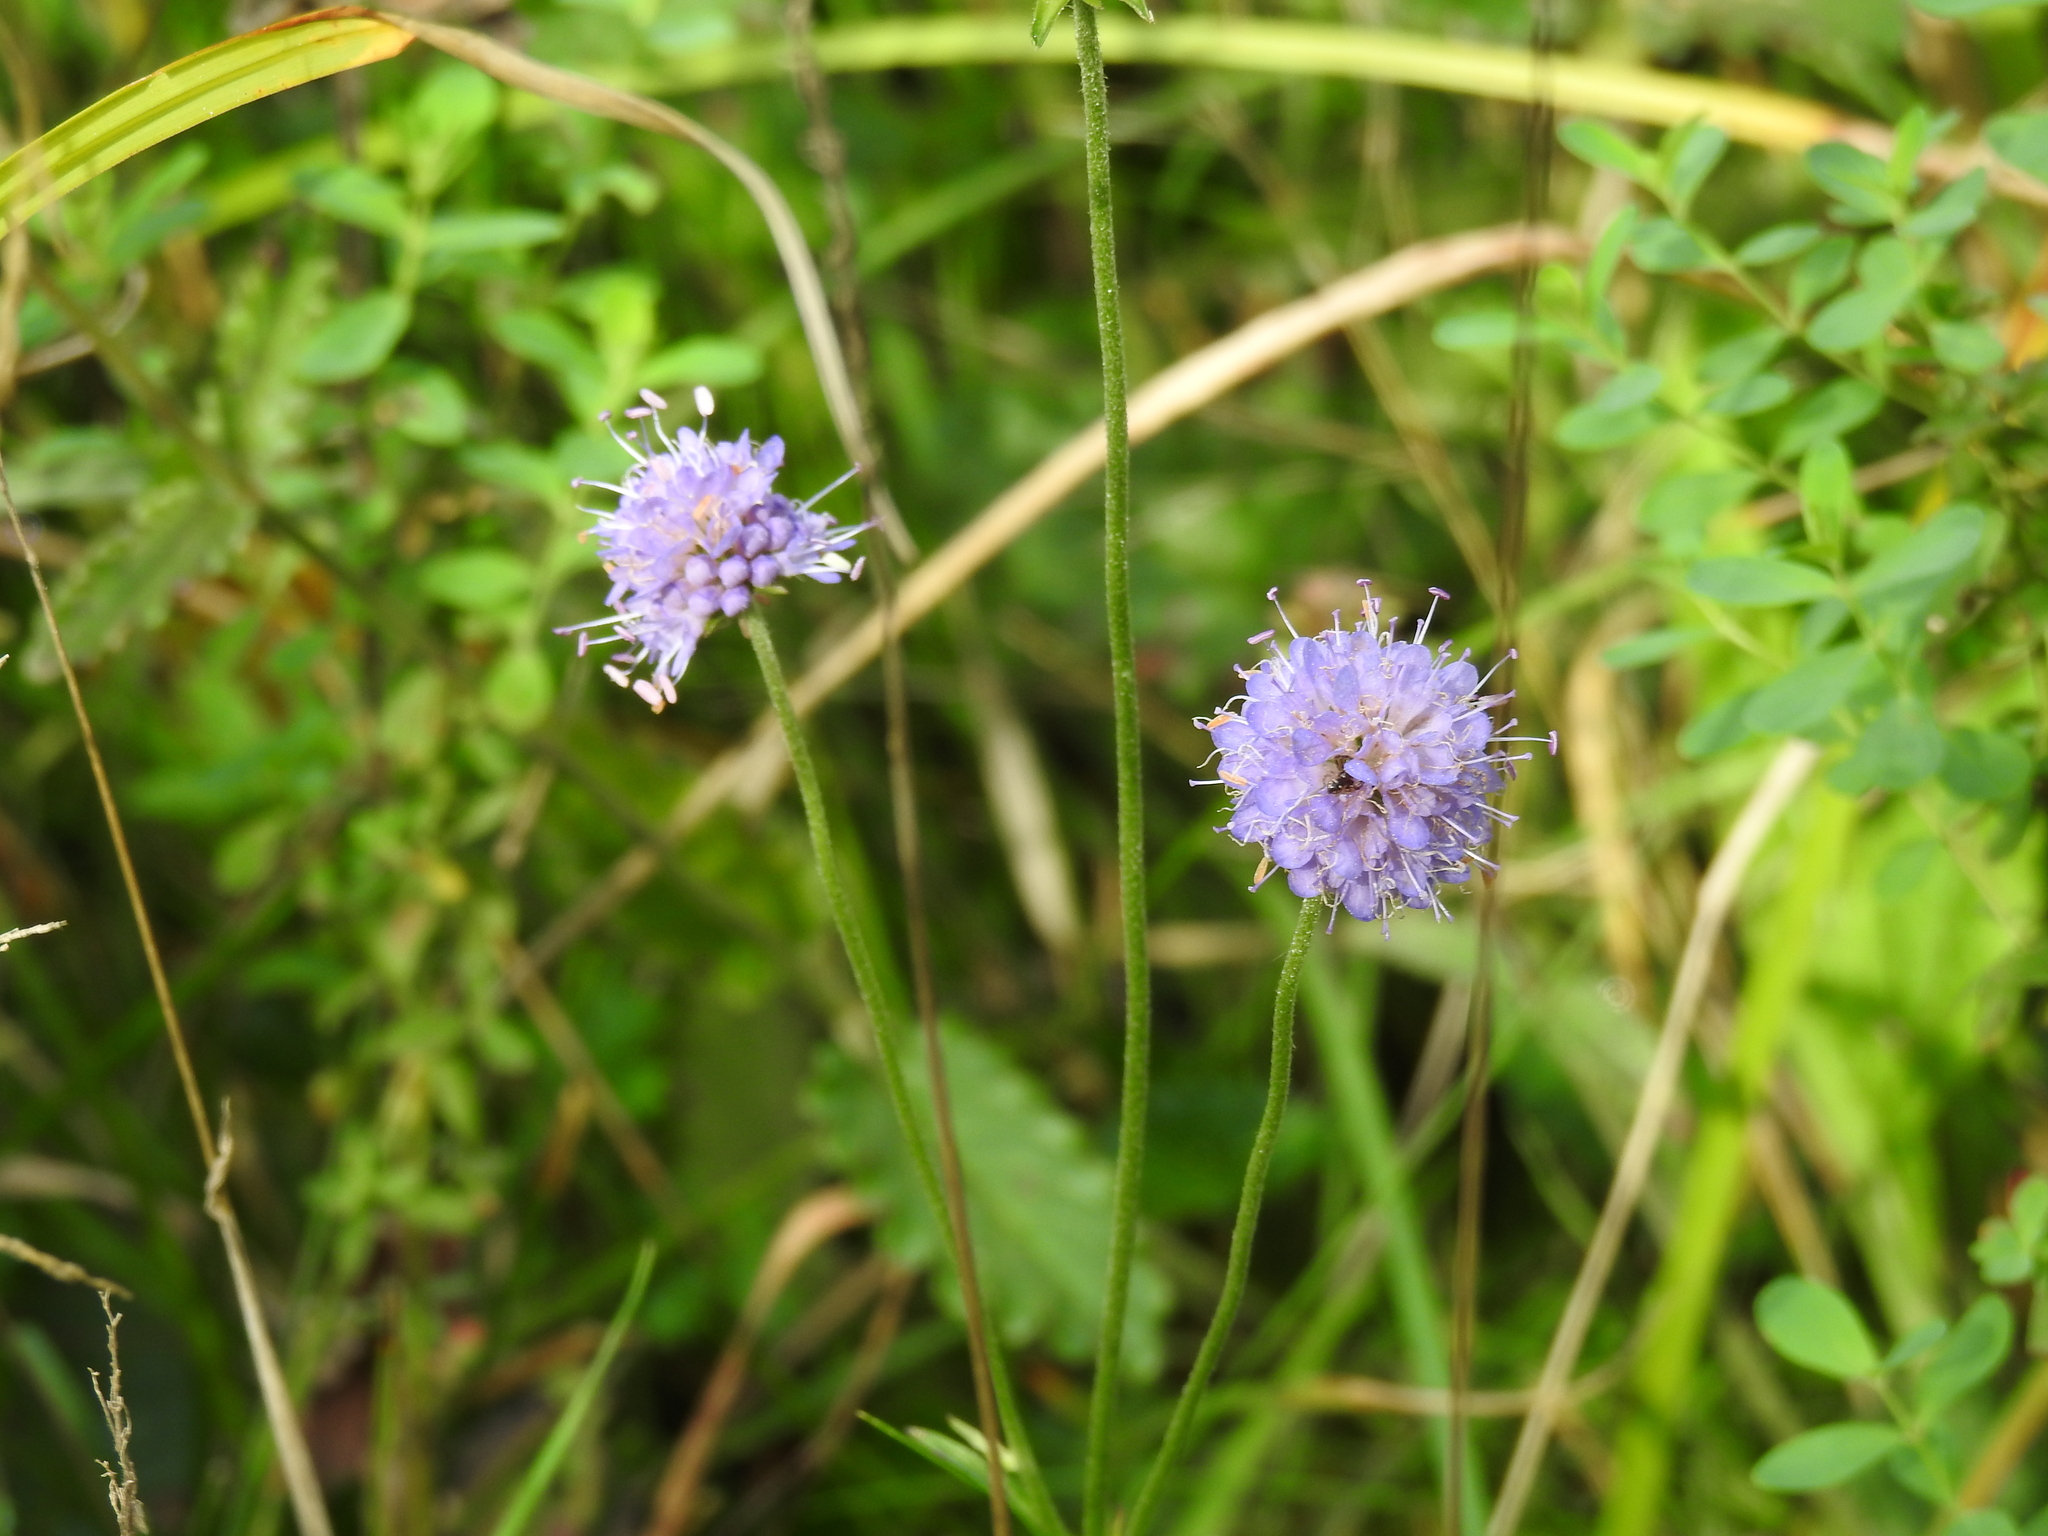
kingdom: Plantae
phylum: Tracheophyta
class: Magnoliopsida
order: Dipsacales
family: Caprifoliaceae
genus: Succisa
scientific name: Succisa pratensis
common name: Devil's-bit
